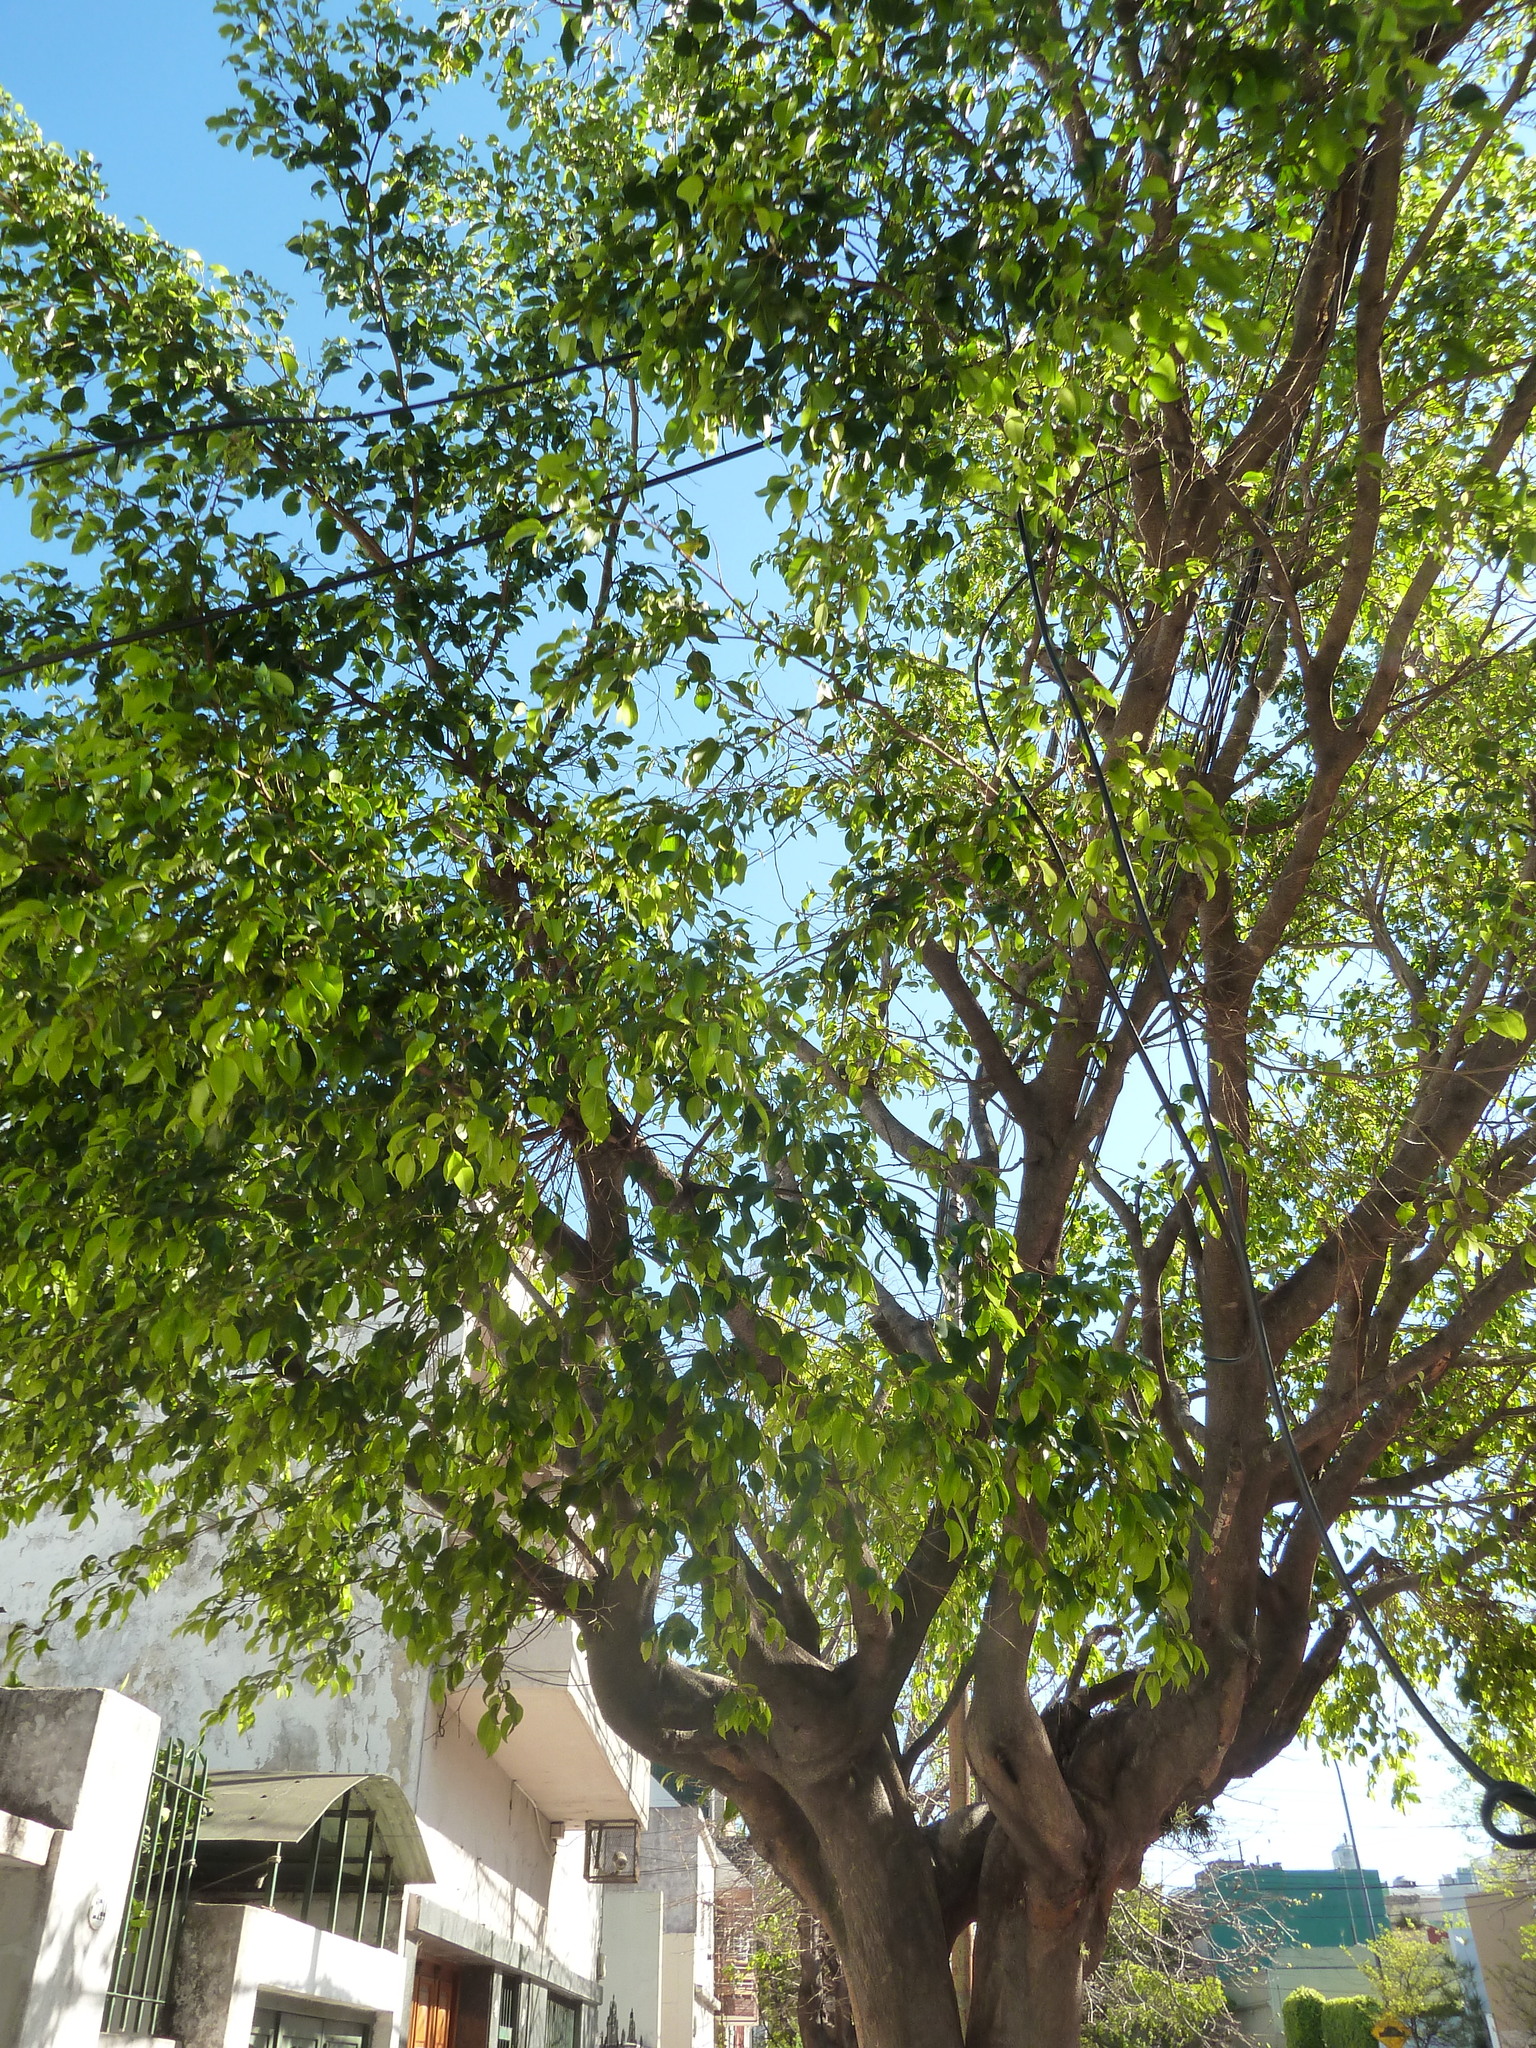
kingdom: Plantae
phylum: Tracheophyta
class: Magnoliopsida
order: Rosales
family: Moraceae
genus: Ficus
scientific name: Ficus benjamina
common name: Weeping fig
